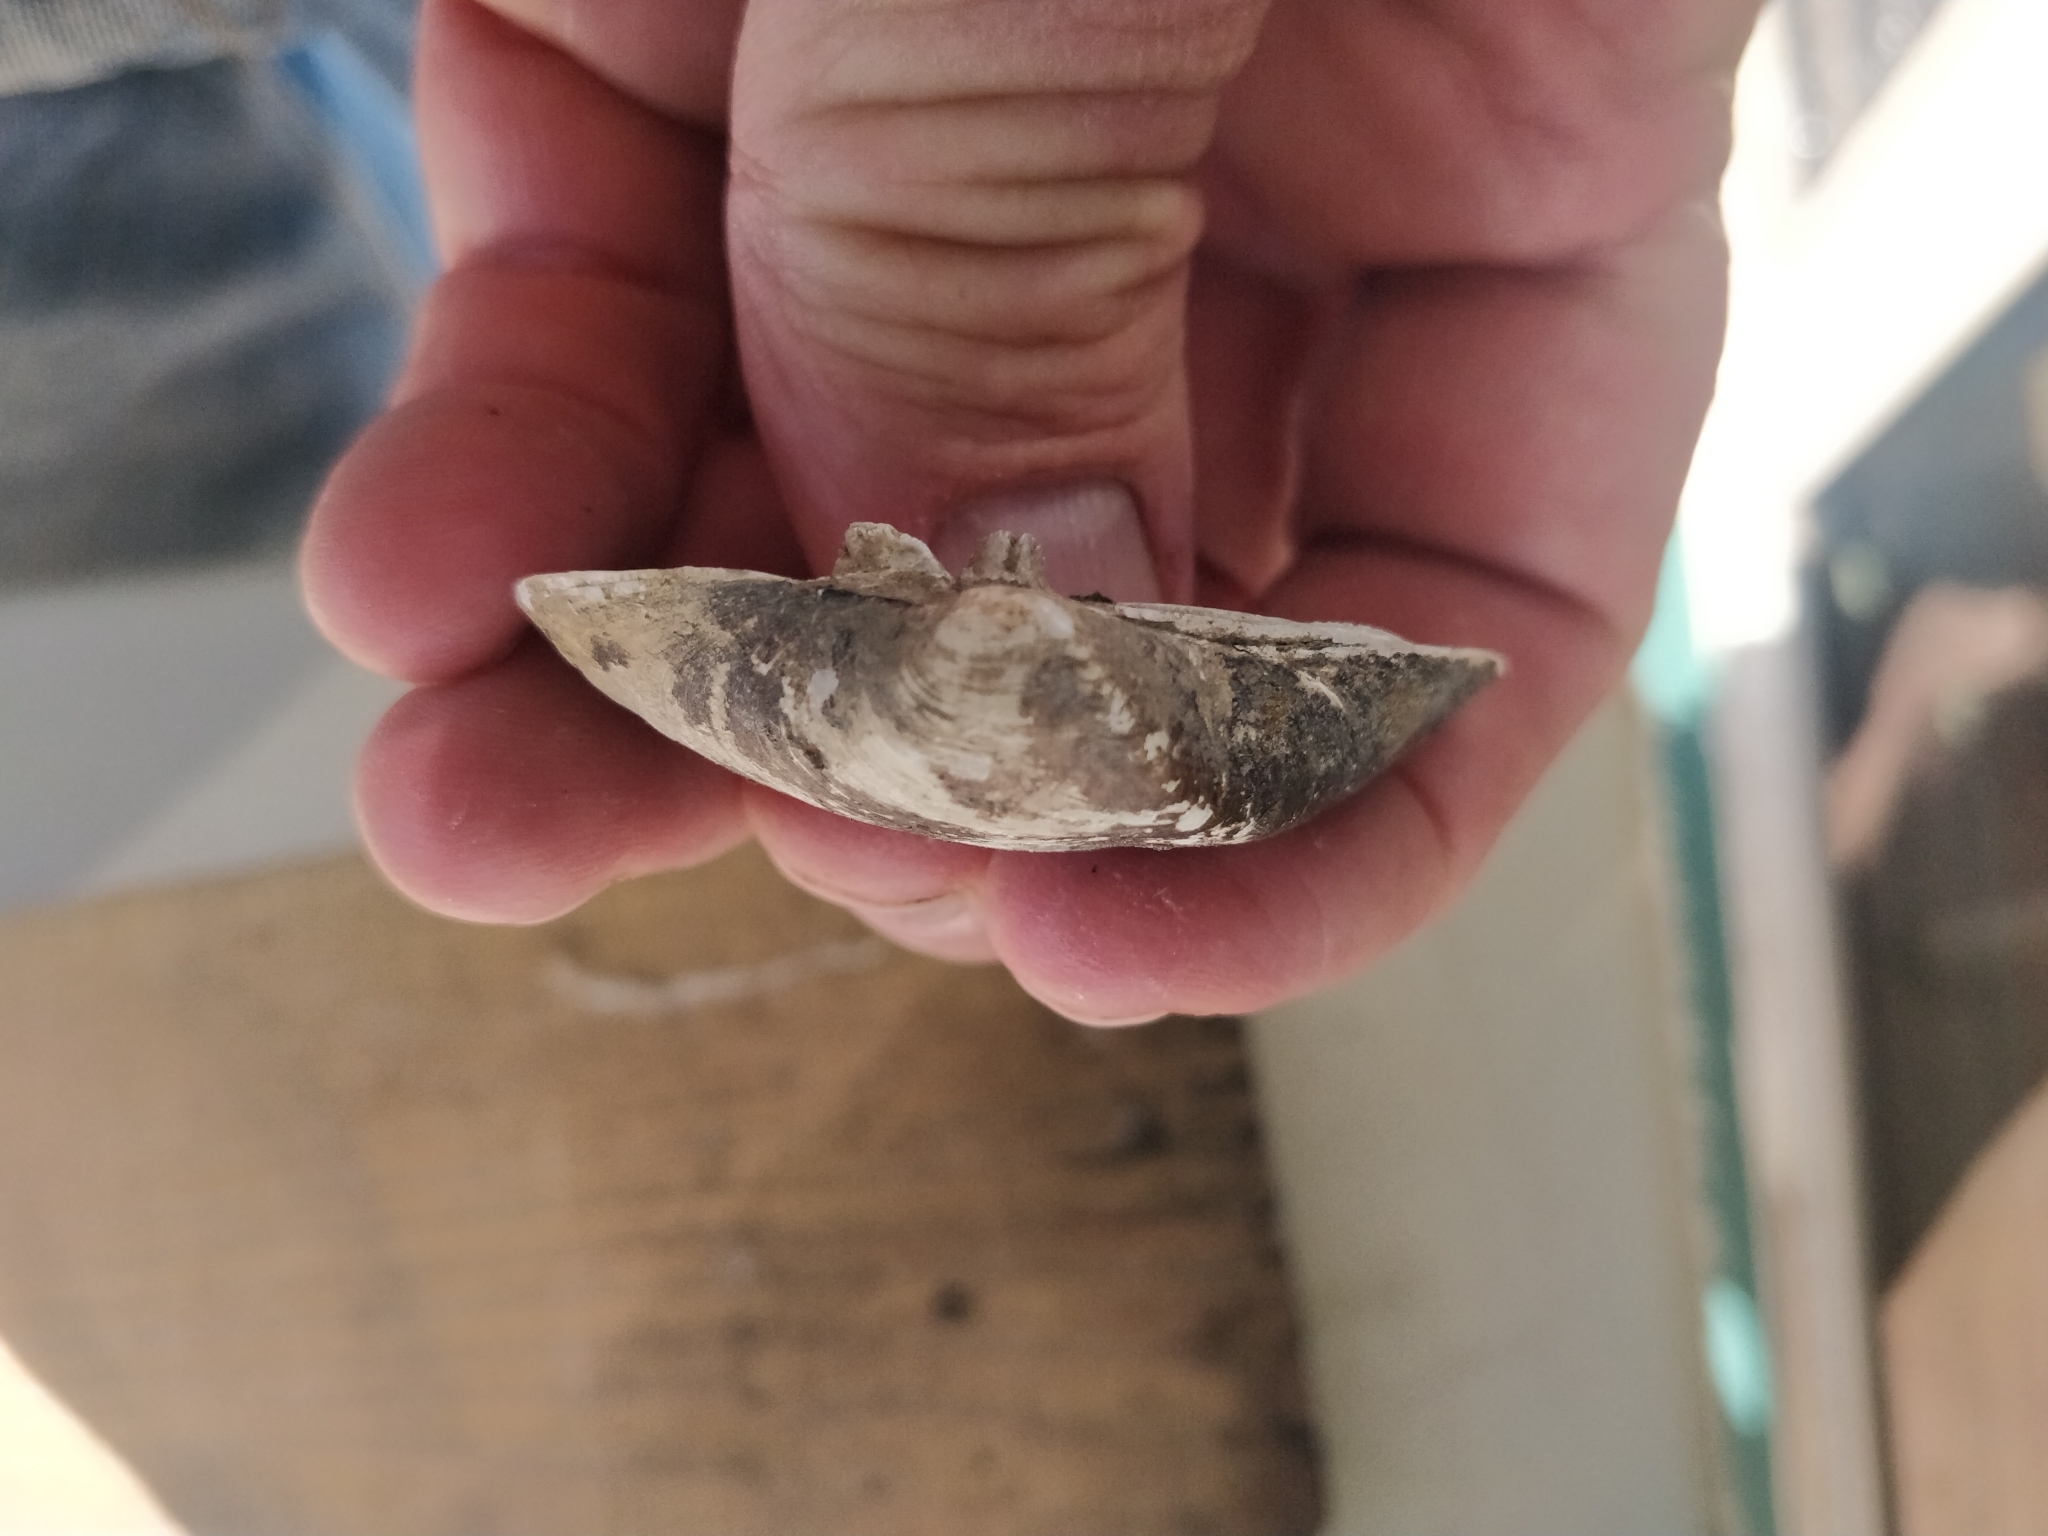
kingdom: Animalia
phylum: Mollusca
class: Bivalvia
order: Unionida
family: Unionidae
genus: Truncilla
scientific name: Truncilla truncata
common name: Deertoe
